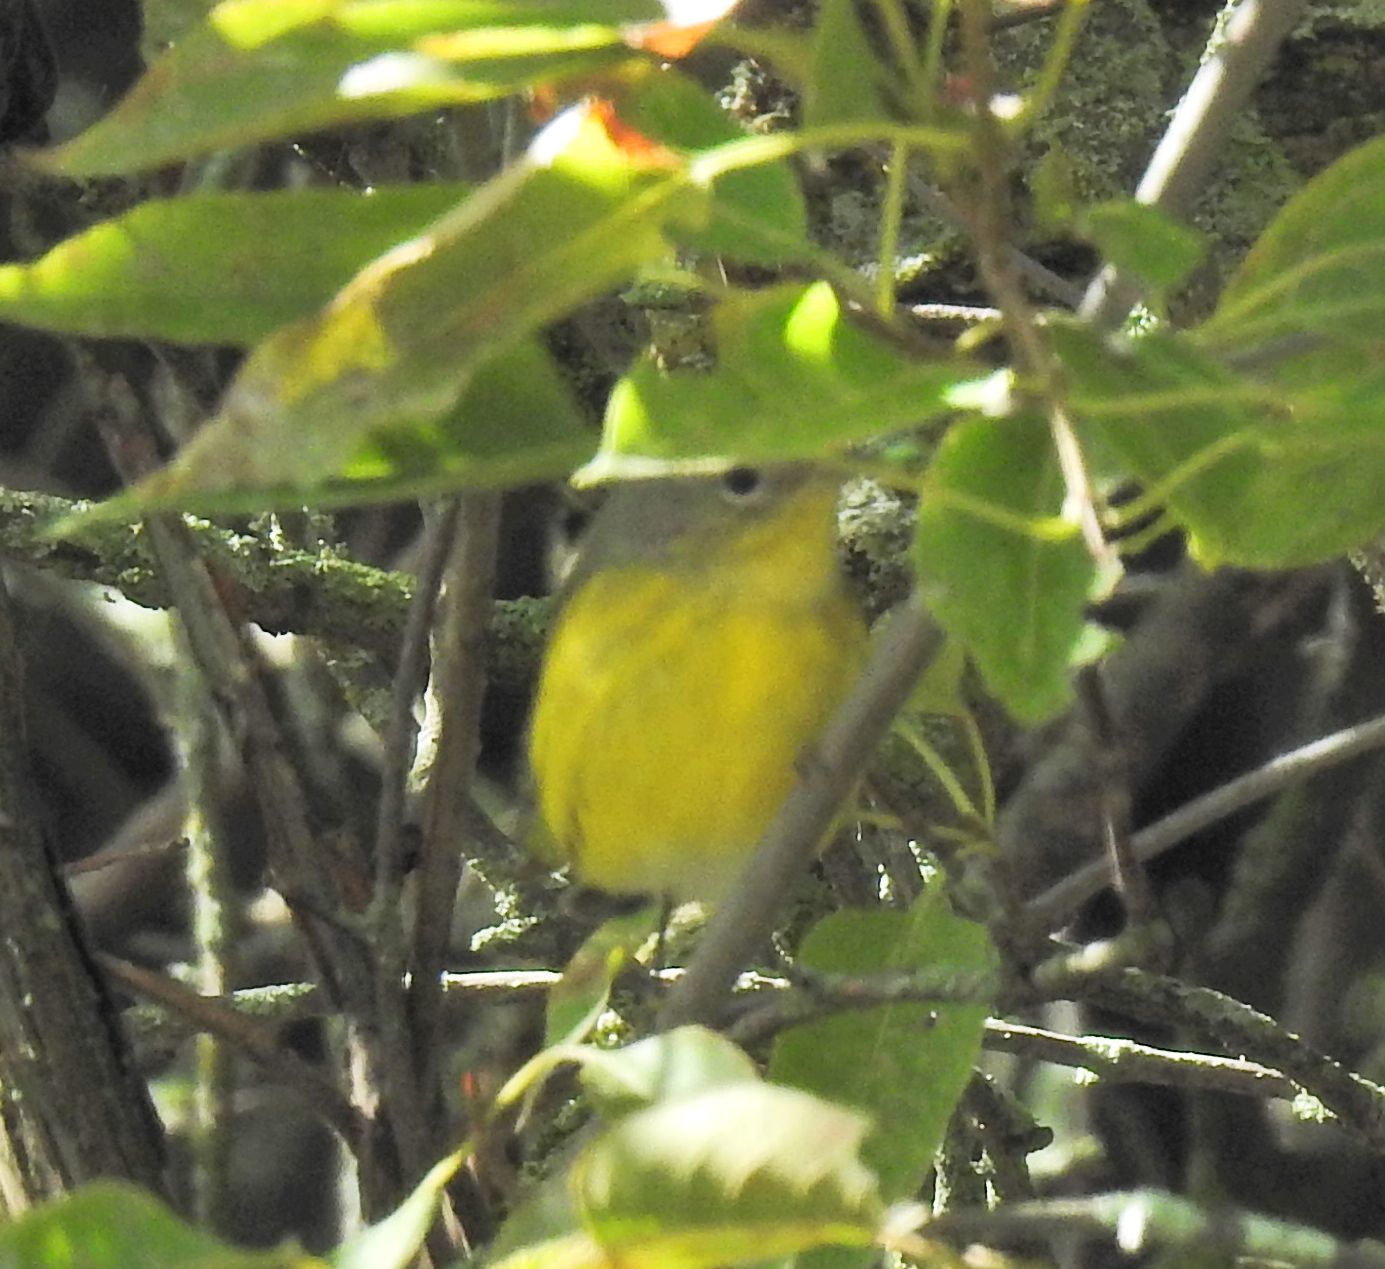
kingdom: Animalia
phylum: Chordata
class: Aves
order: Passeriformes
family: Parulidae
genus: Setophaga
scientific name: Setophaga magnolia
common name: Magnolia warbler
